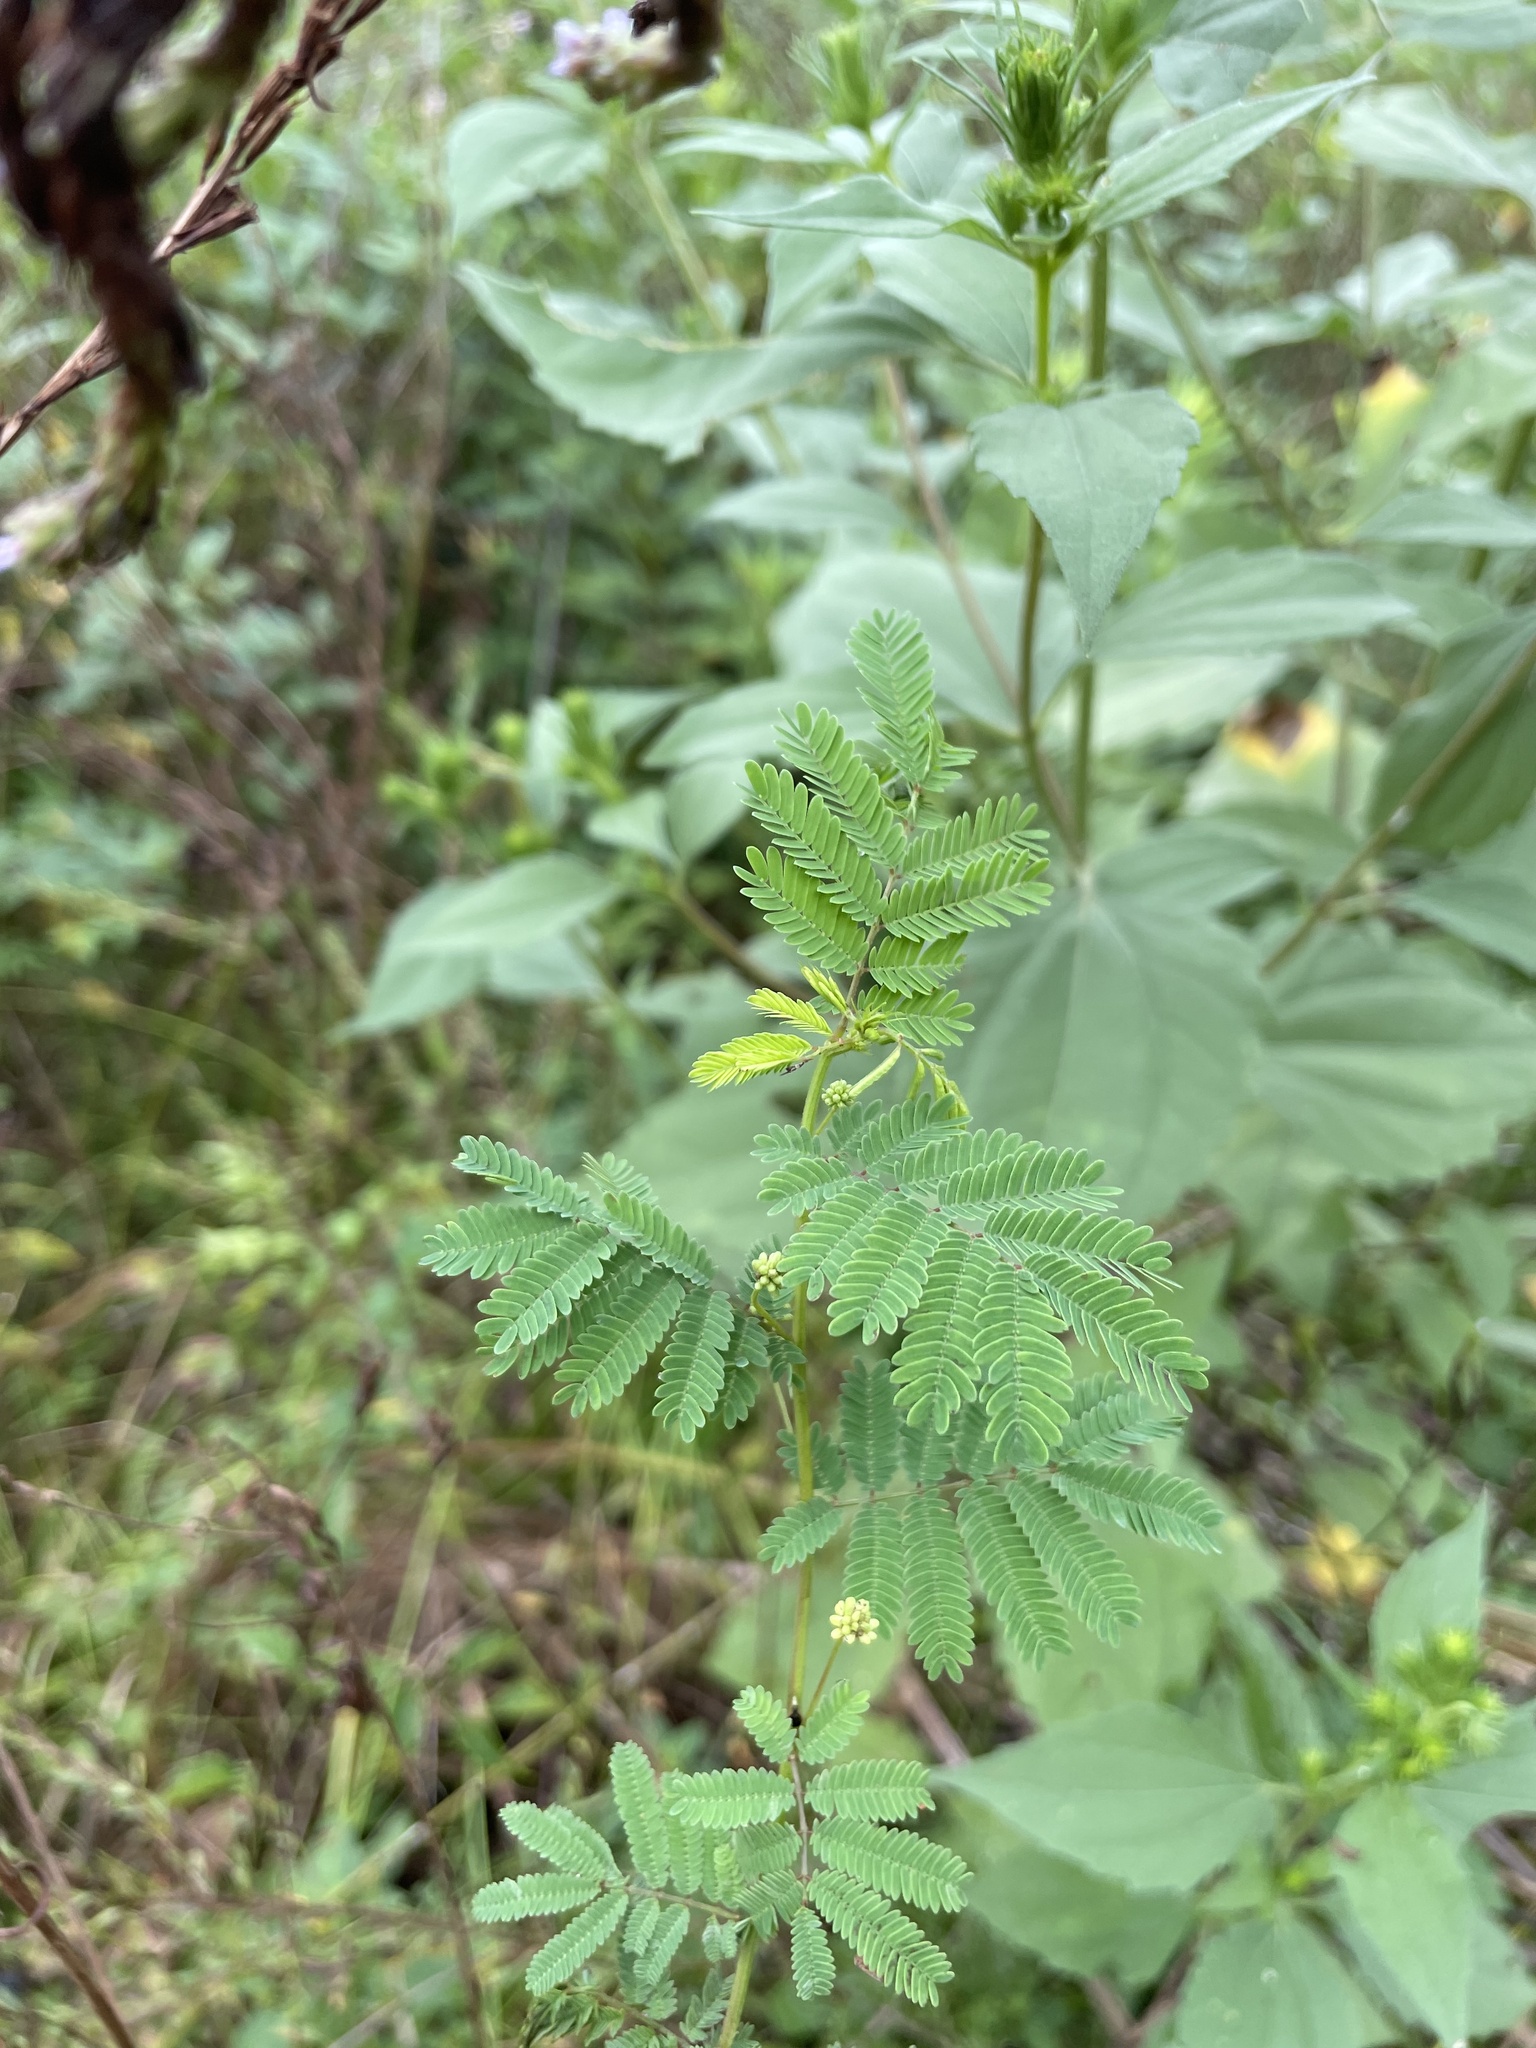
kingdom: Plantae
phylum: Tracheophyta
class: Magnoliopsida
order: Fabales
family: Fabaceae
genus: Desmanthus
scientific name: Desmanthus illinoensis
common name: Illinois bundle-flower
